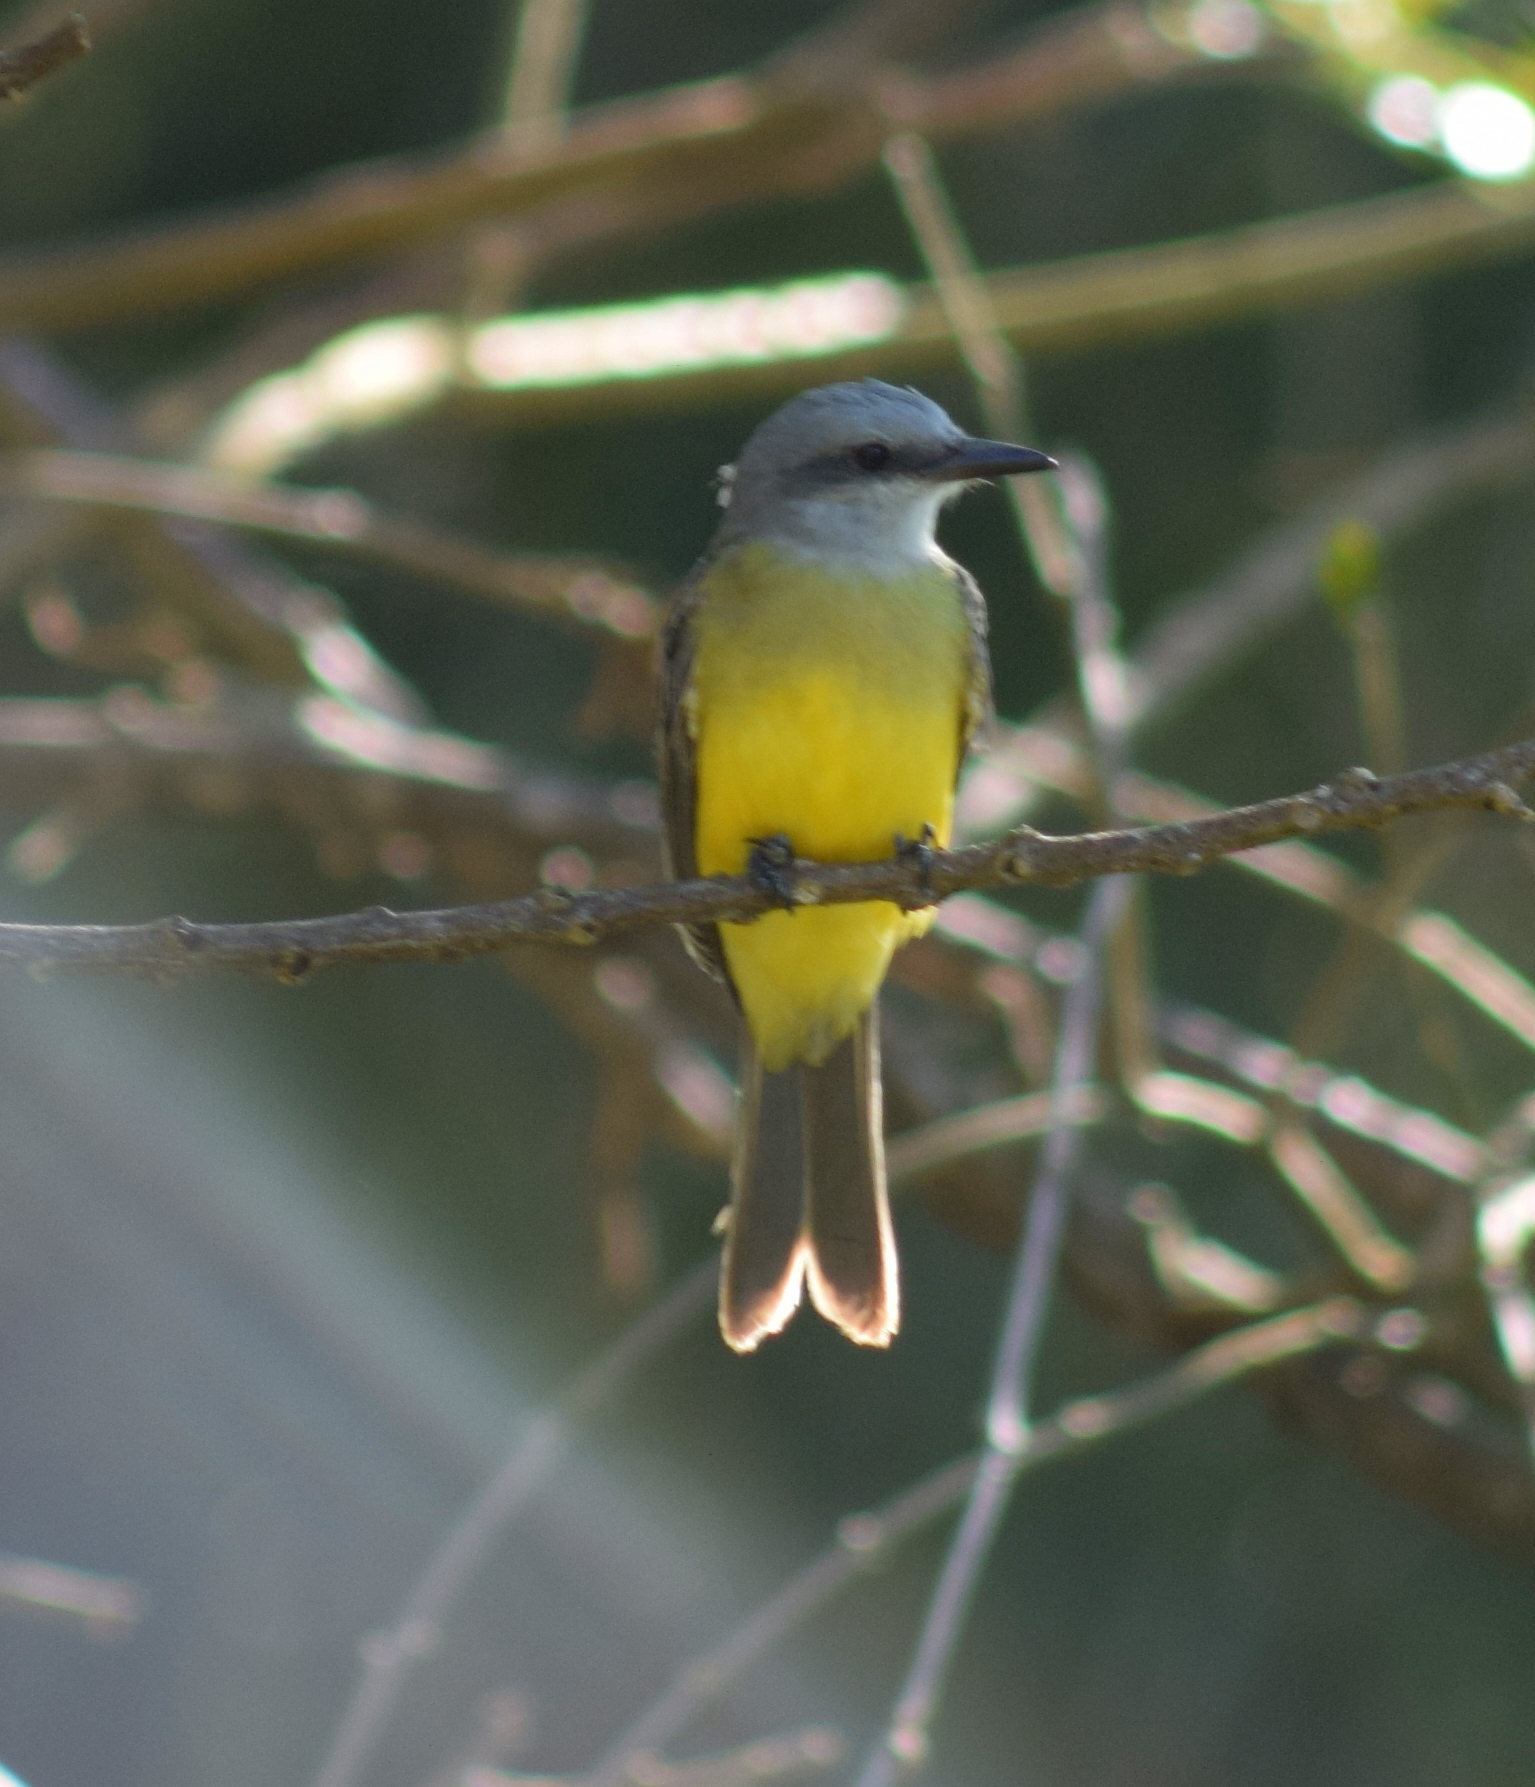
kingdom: Animalia
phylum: Chordata
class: Aves
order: Passeriformes
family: Tyrannidae
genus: Tyrannus
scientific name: Tyrannus melancholicus
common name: Tropical kingbird
